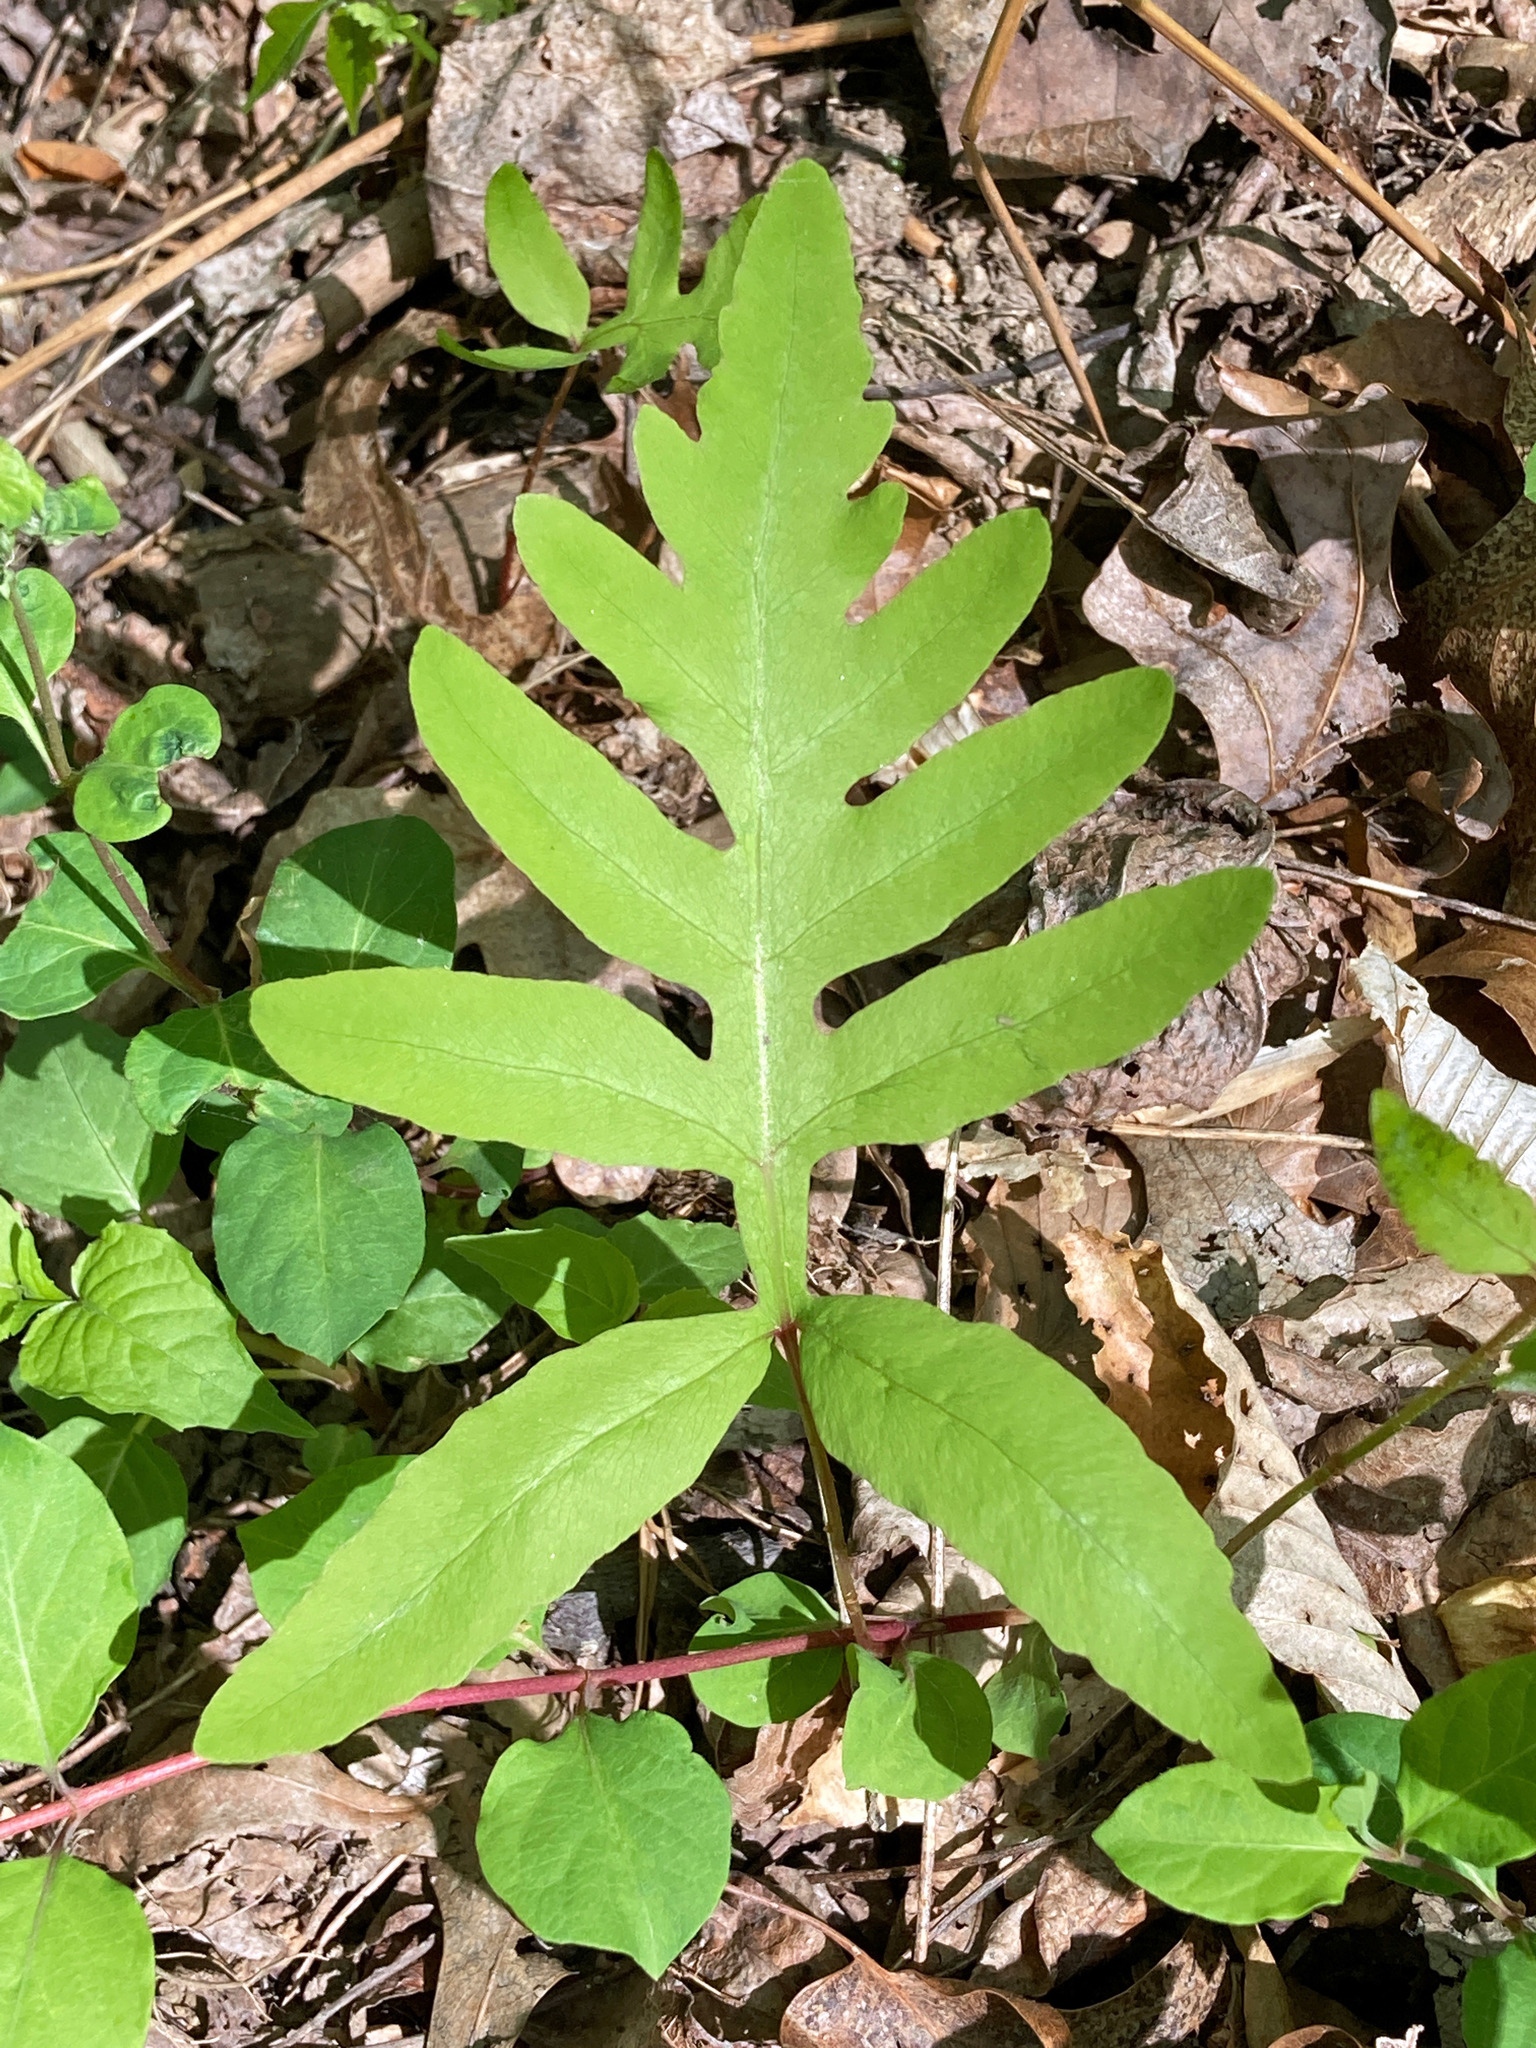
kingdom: Plantae
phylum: Tracheophyta
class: Polypodiopsida
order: Polypodiales
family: Onocleaceae
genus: Onoclea
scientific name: Onoclea sensibilis
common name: Sensitive fern
